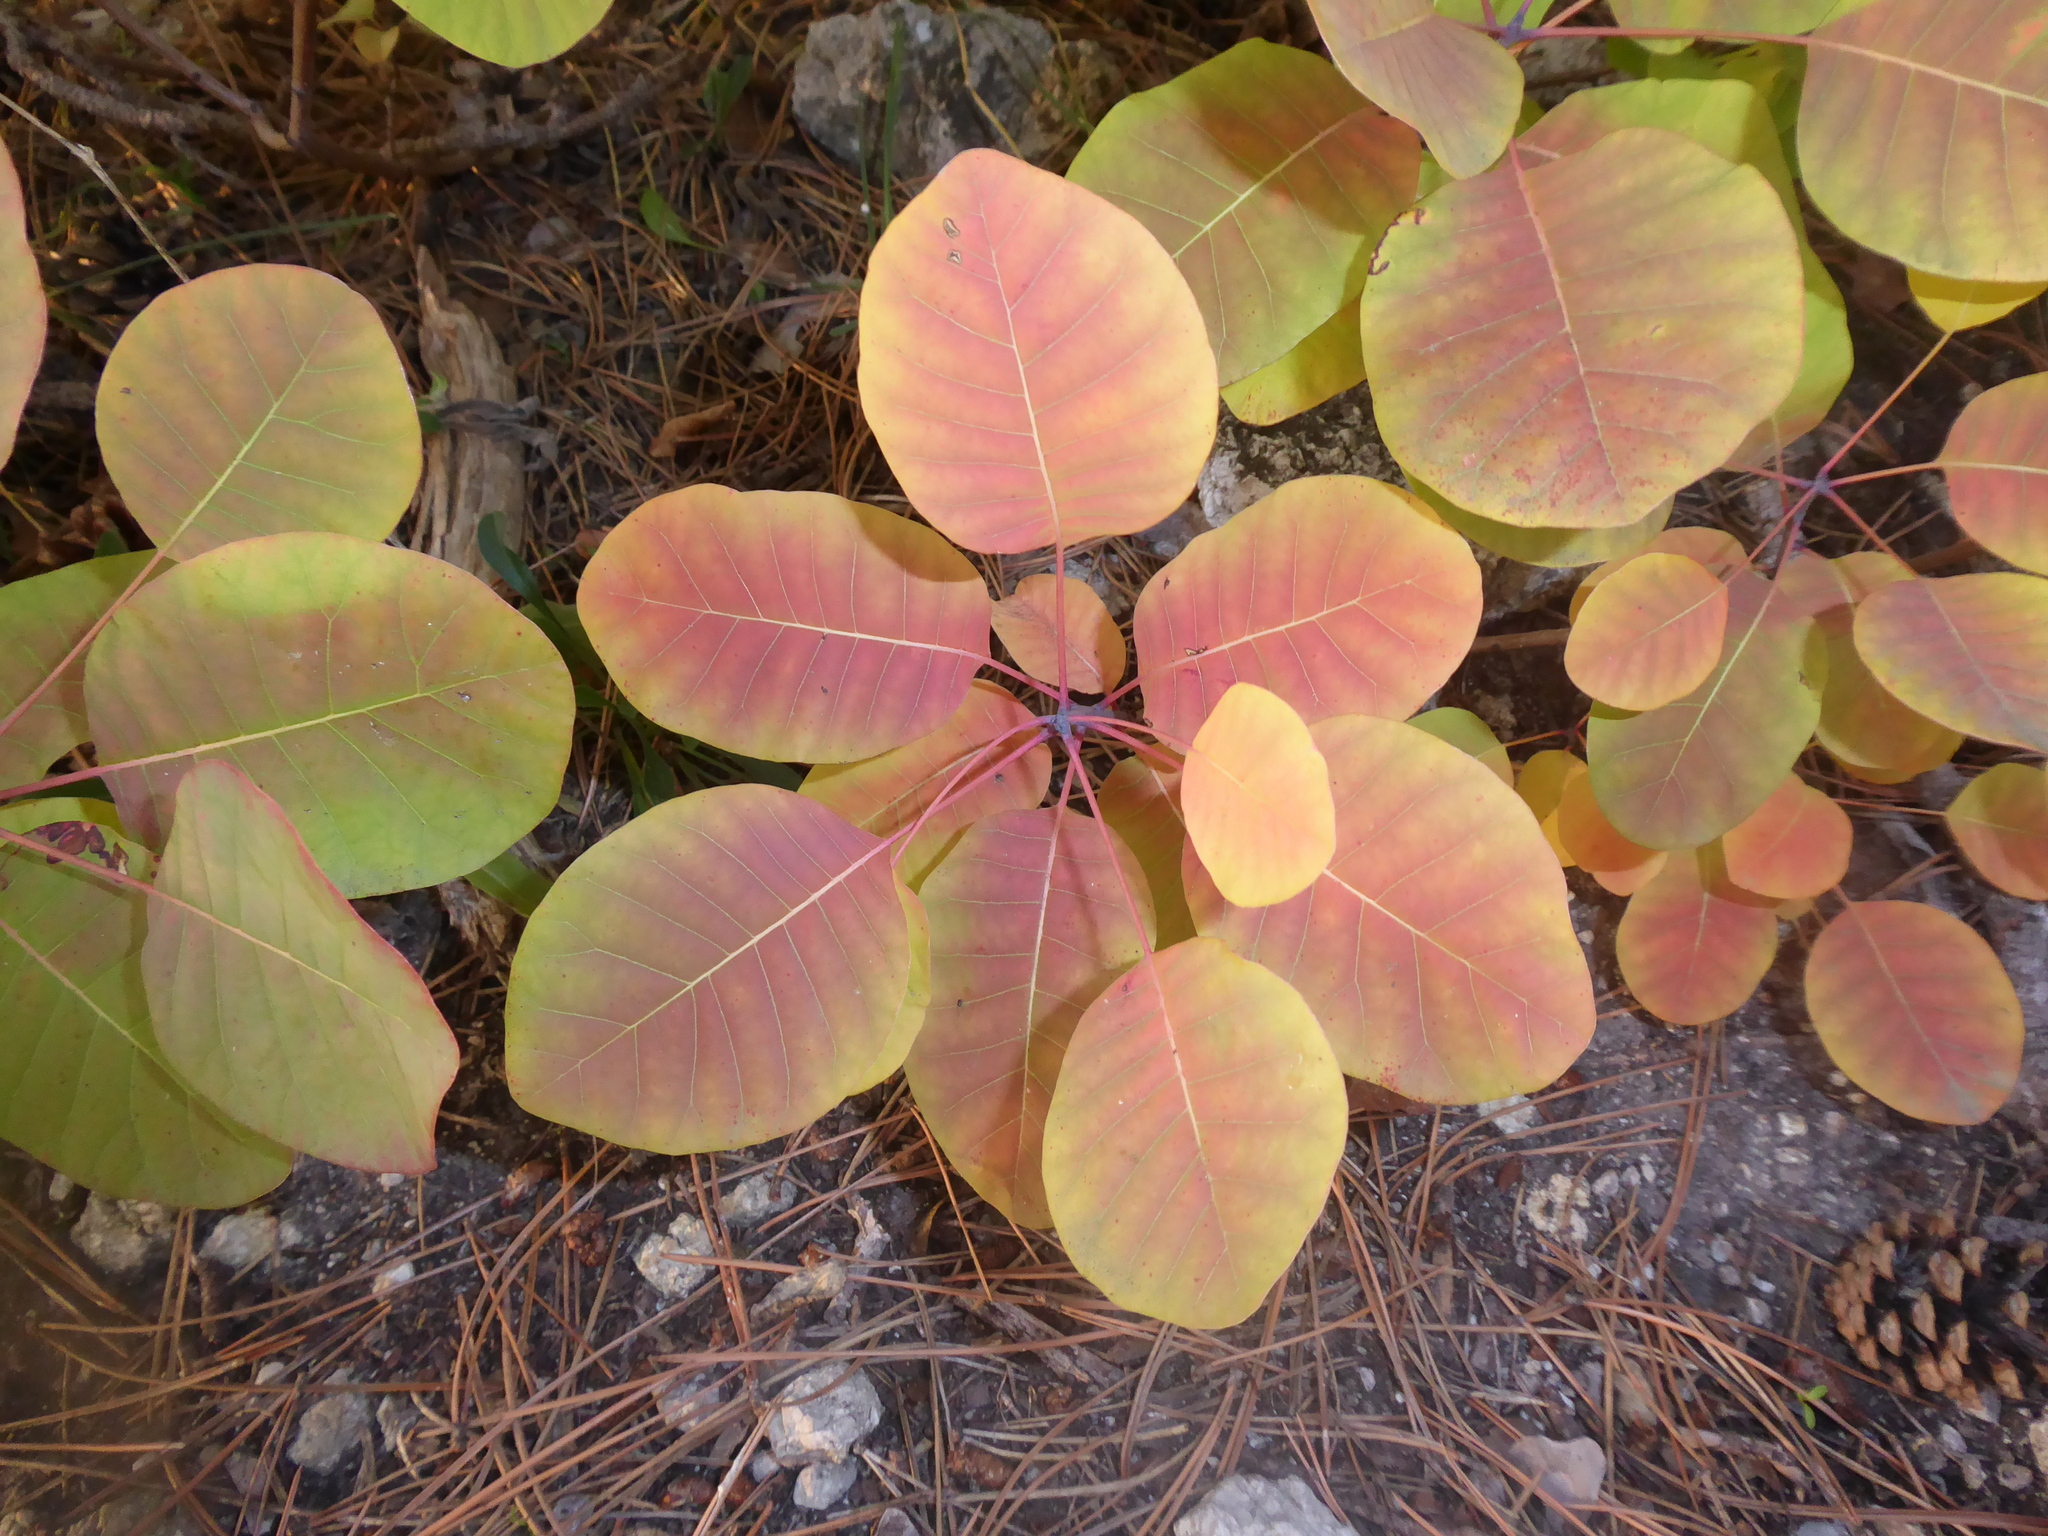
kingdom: Plantae
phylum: Tracheophyta
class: Magnoliopsida
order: Sapindales
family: Anacardiaceae
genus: Cotinus
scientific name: Cotinus coggygria
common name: Smoke-tree
